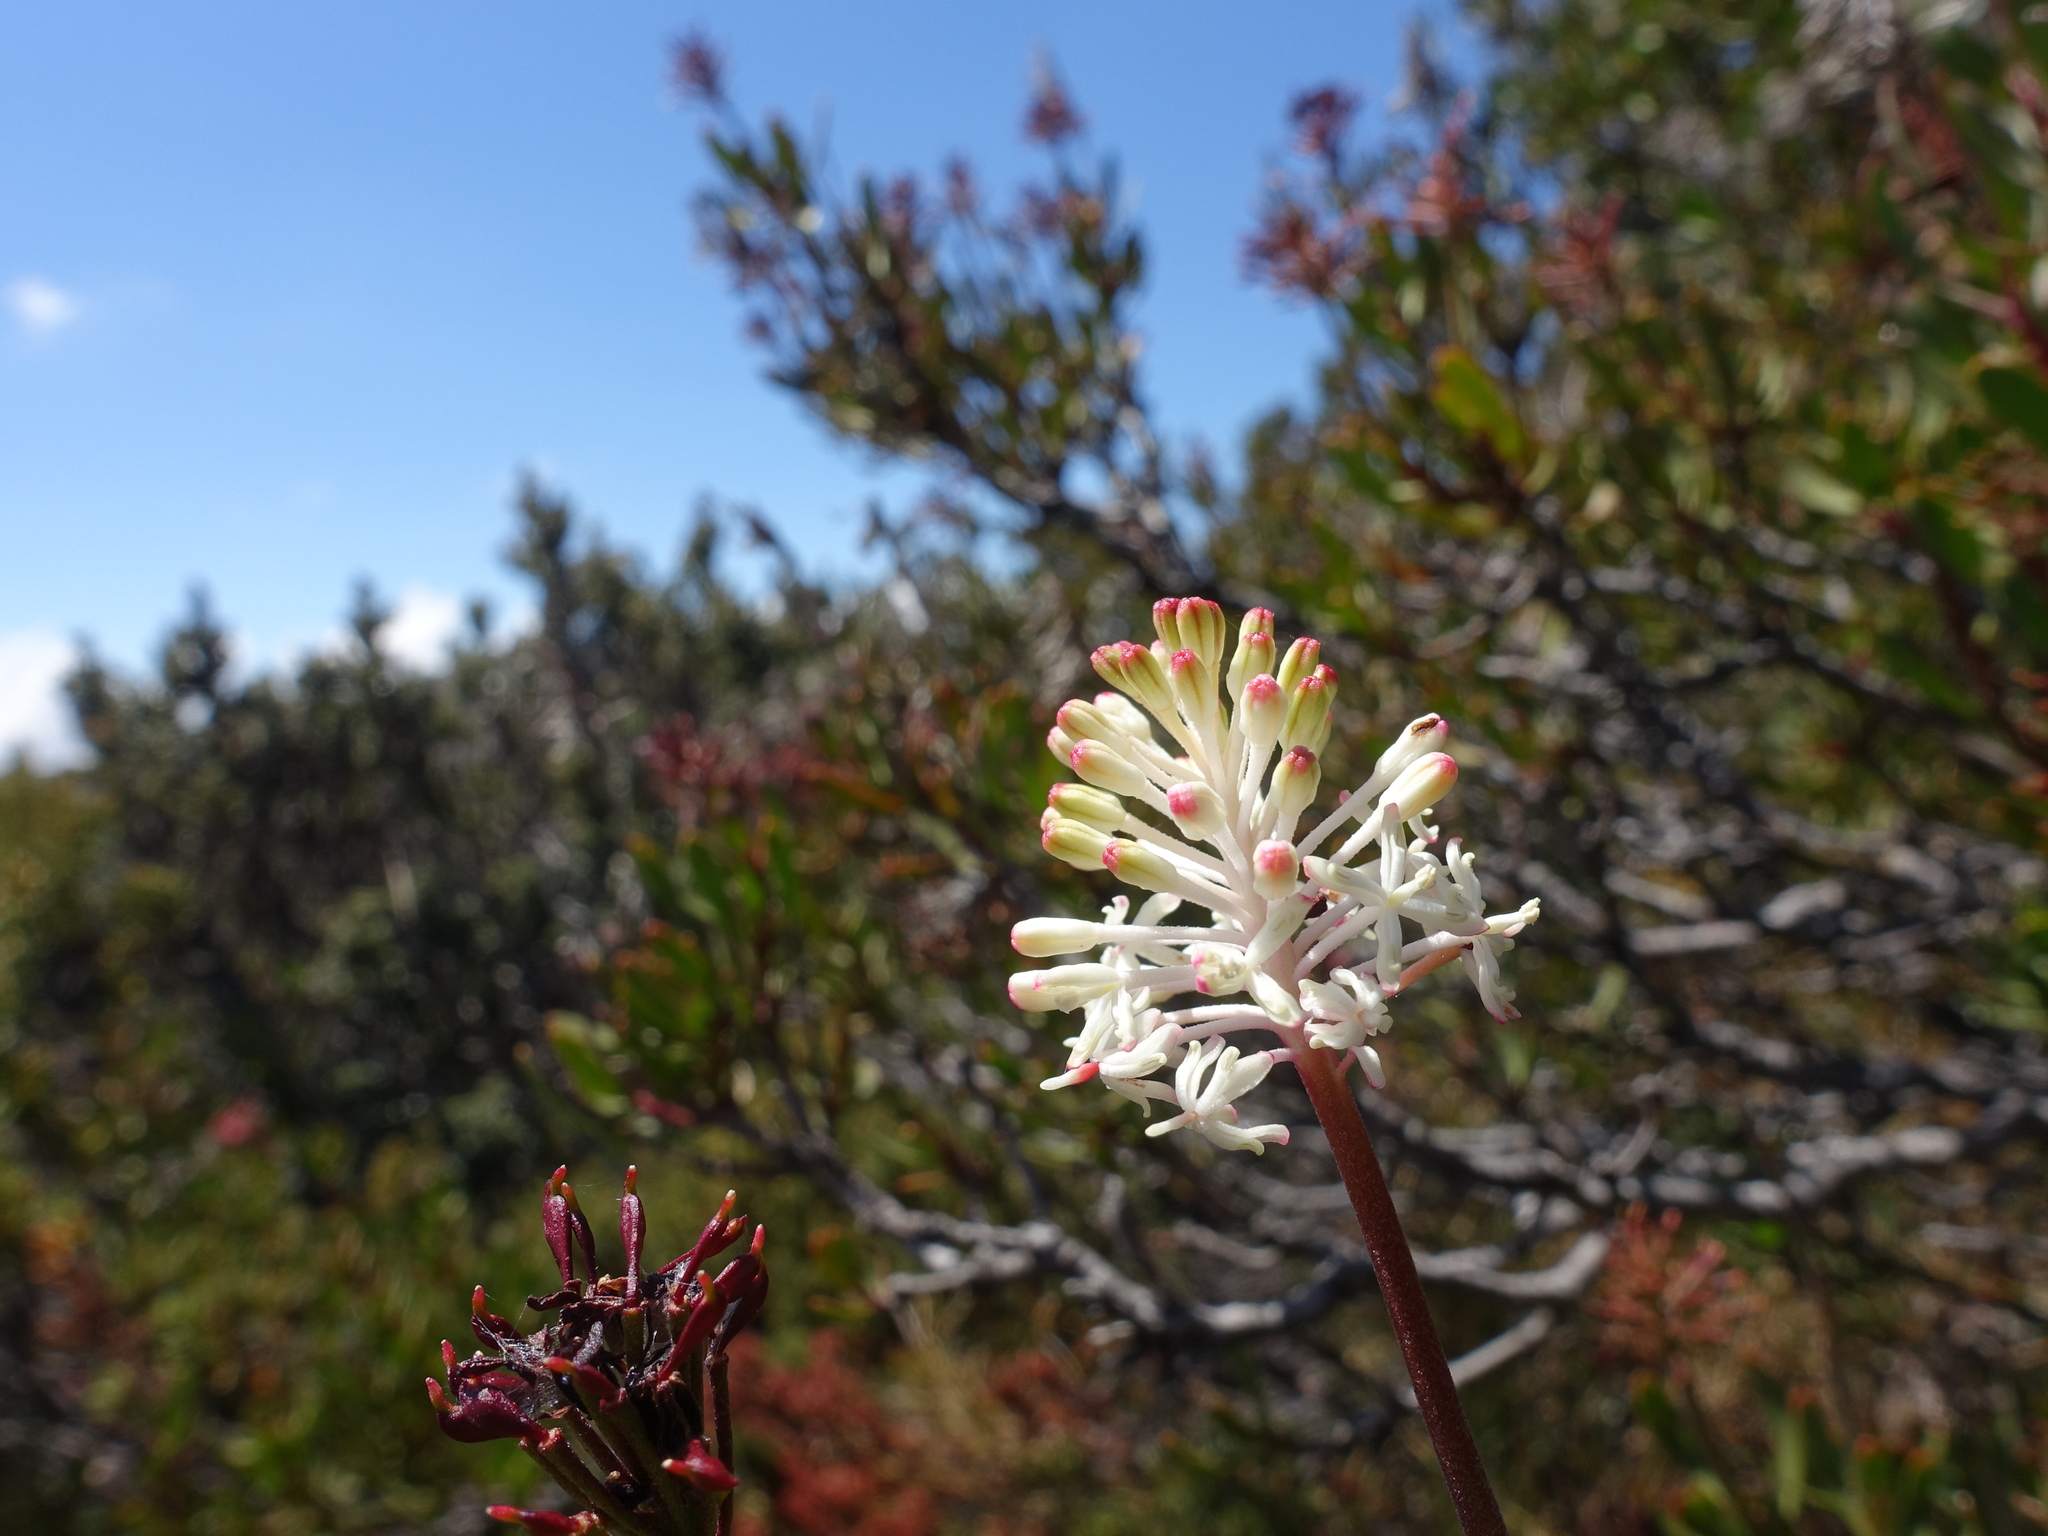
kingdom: Plantae
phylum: Tracheophyta
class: Magnoliopsida
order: Proteales
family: Proteaceae
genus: Bellendena
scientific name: Bellendena montana
